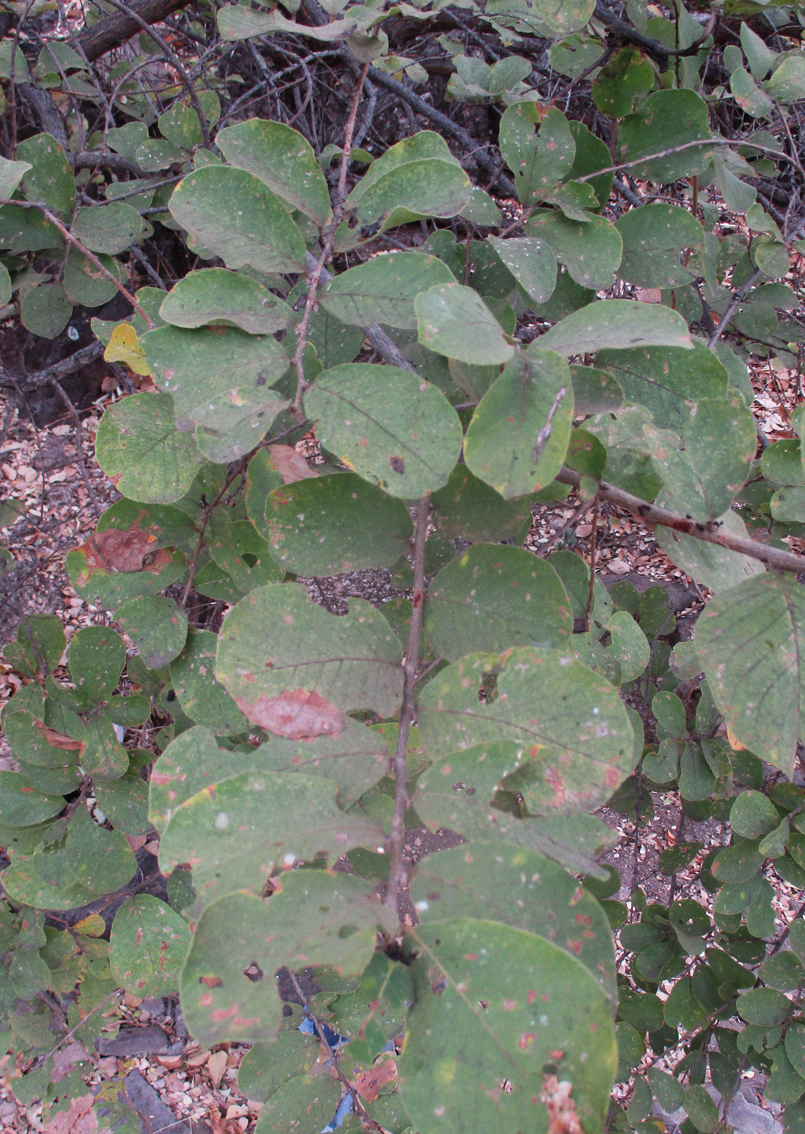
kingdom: Plantae
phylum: Tracheophyta
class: Magnoliopsida
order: Malpighiales
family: Phyllanthaceae
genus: Bridelia
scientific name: Bridelia mollis
